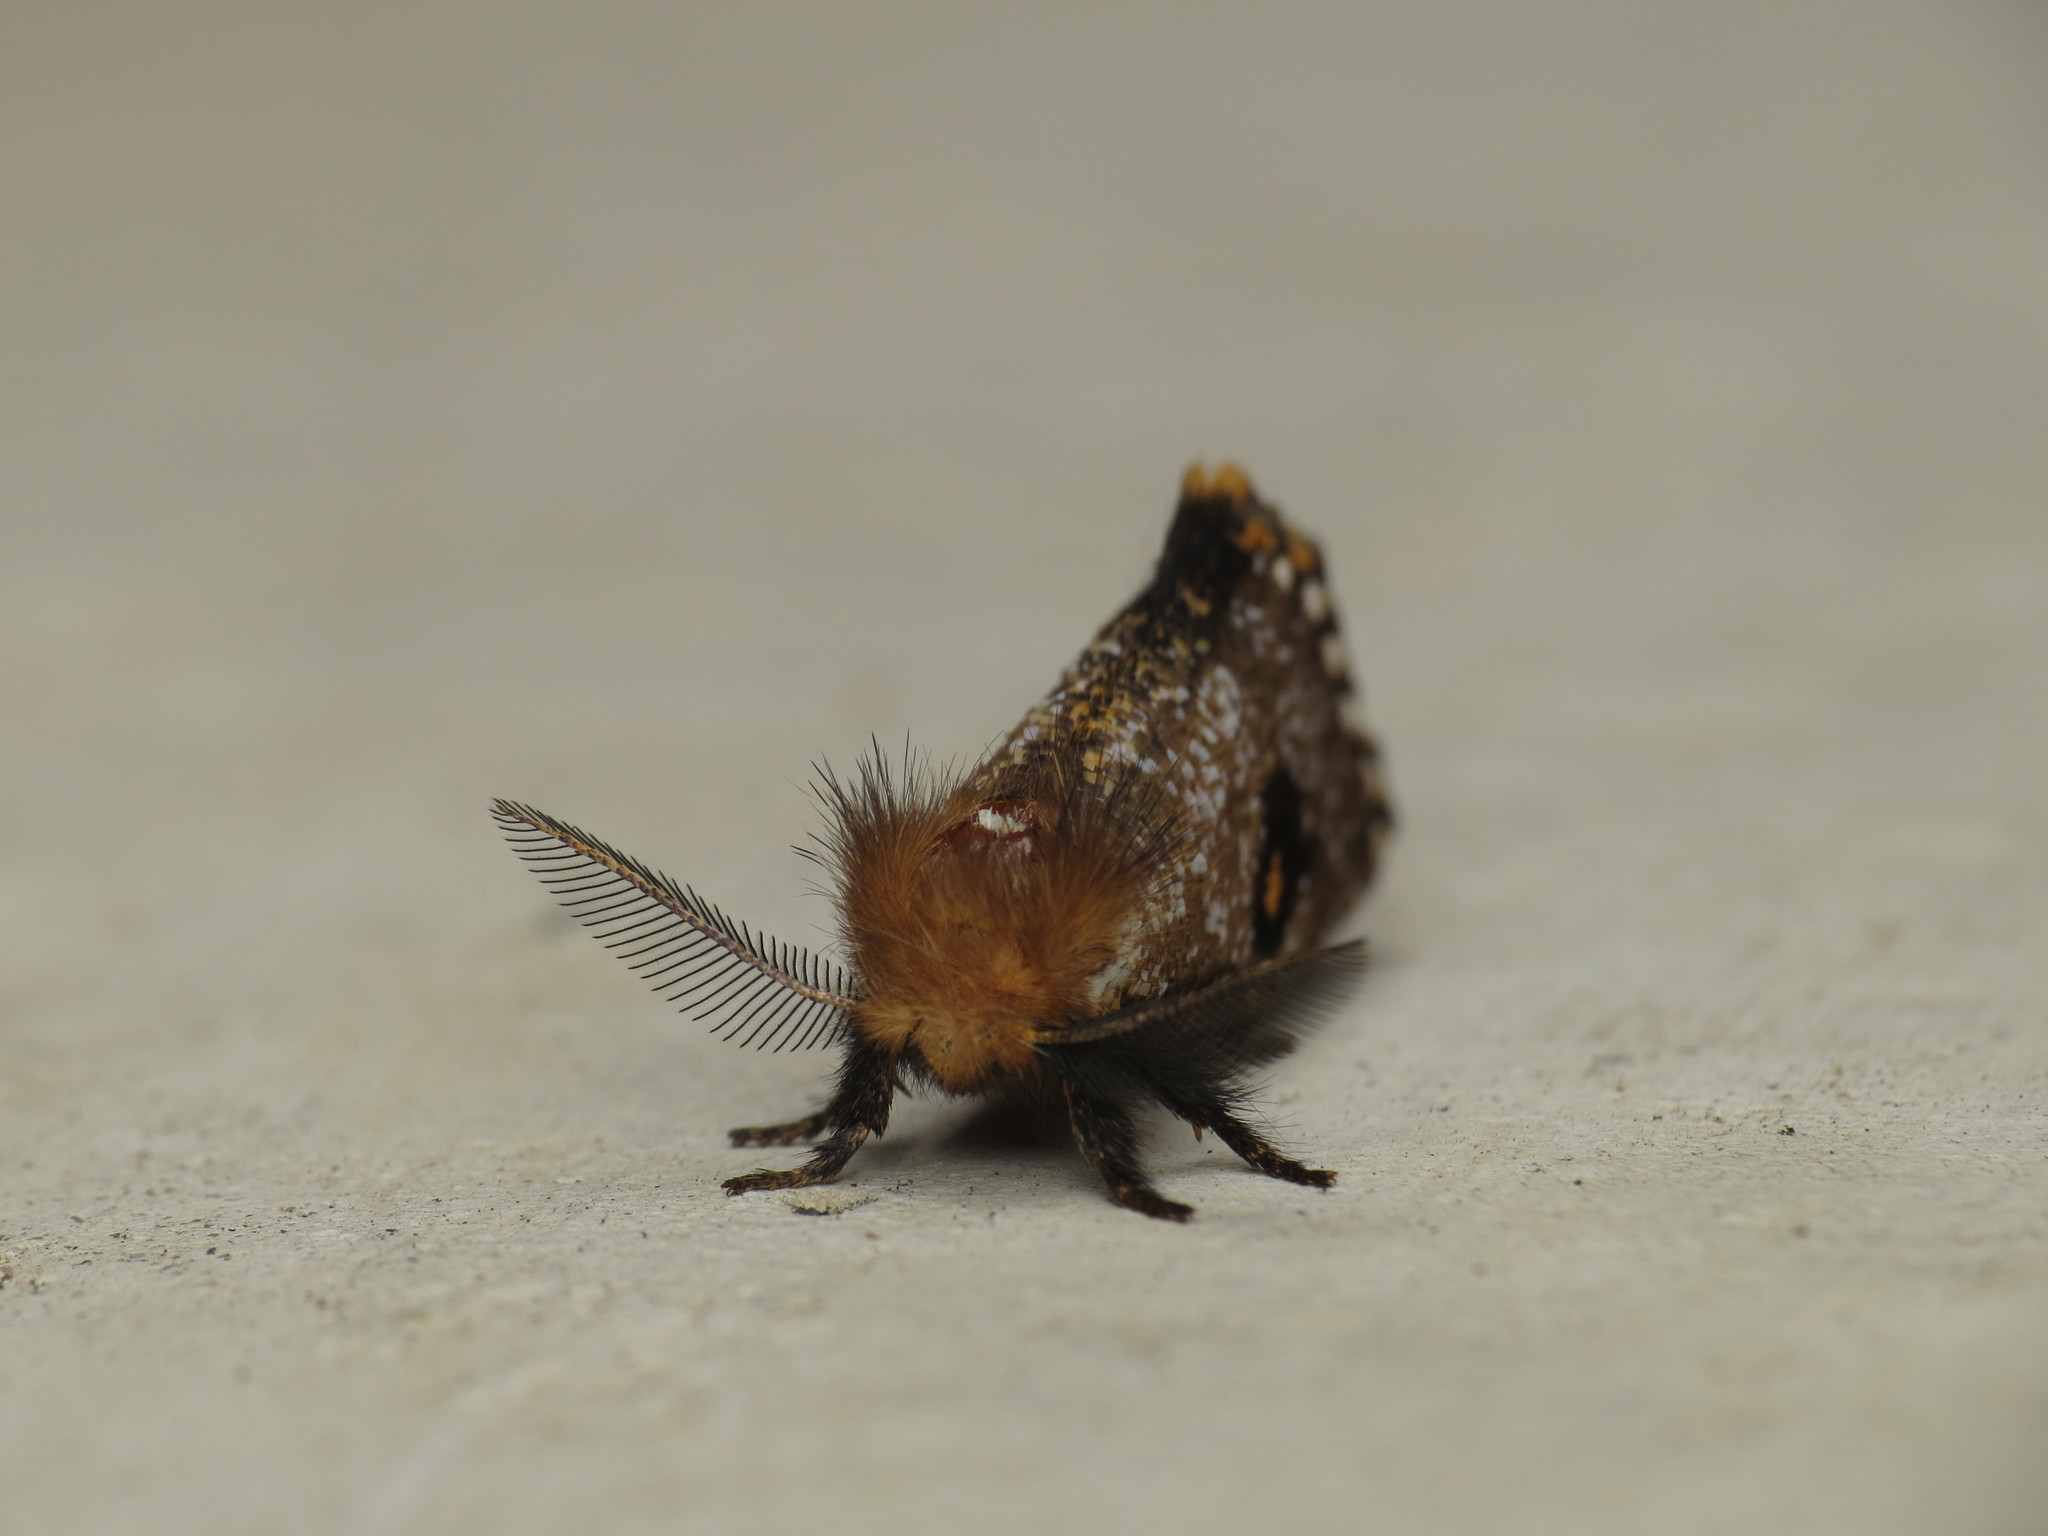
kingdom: Animalia
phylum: Arthropoda
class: Insecta
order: Lepidoptera
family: Notodontidae
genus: Epicoma
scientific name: Epicoma contristis
